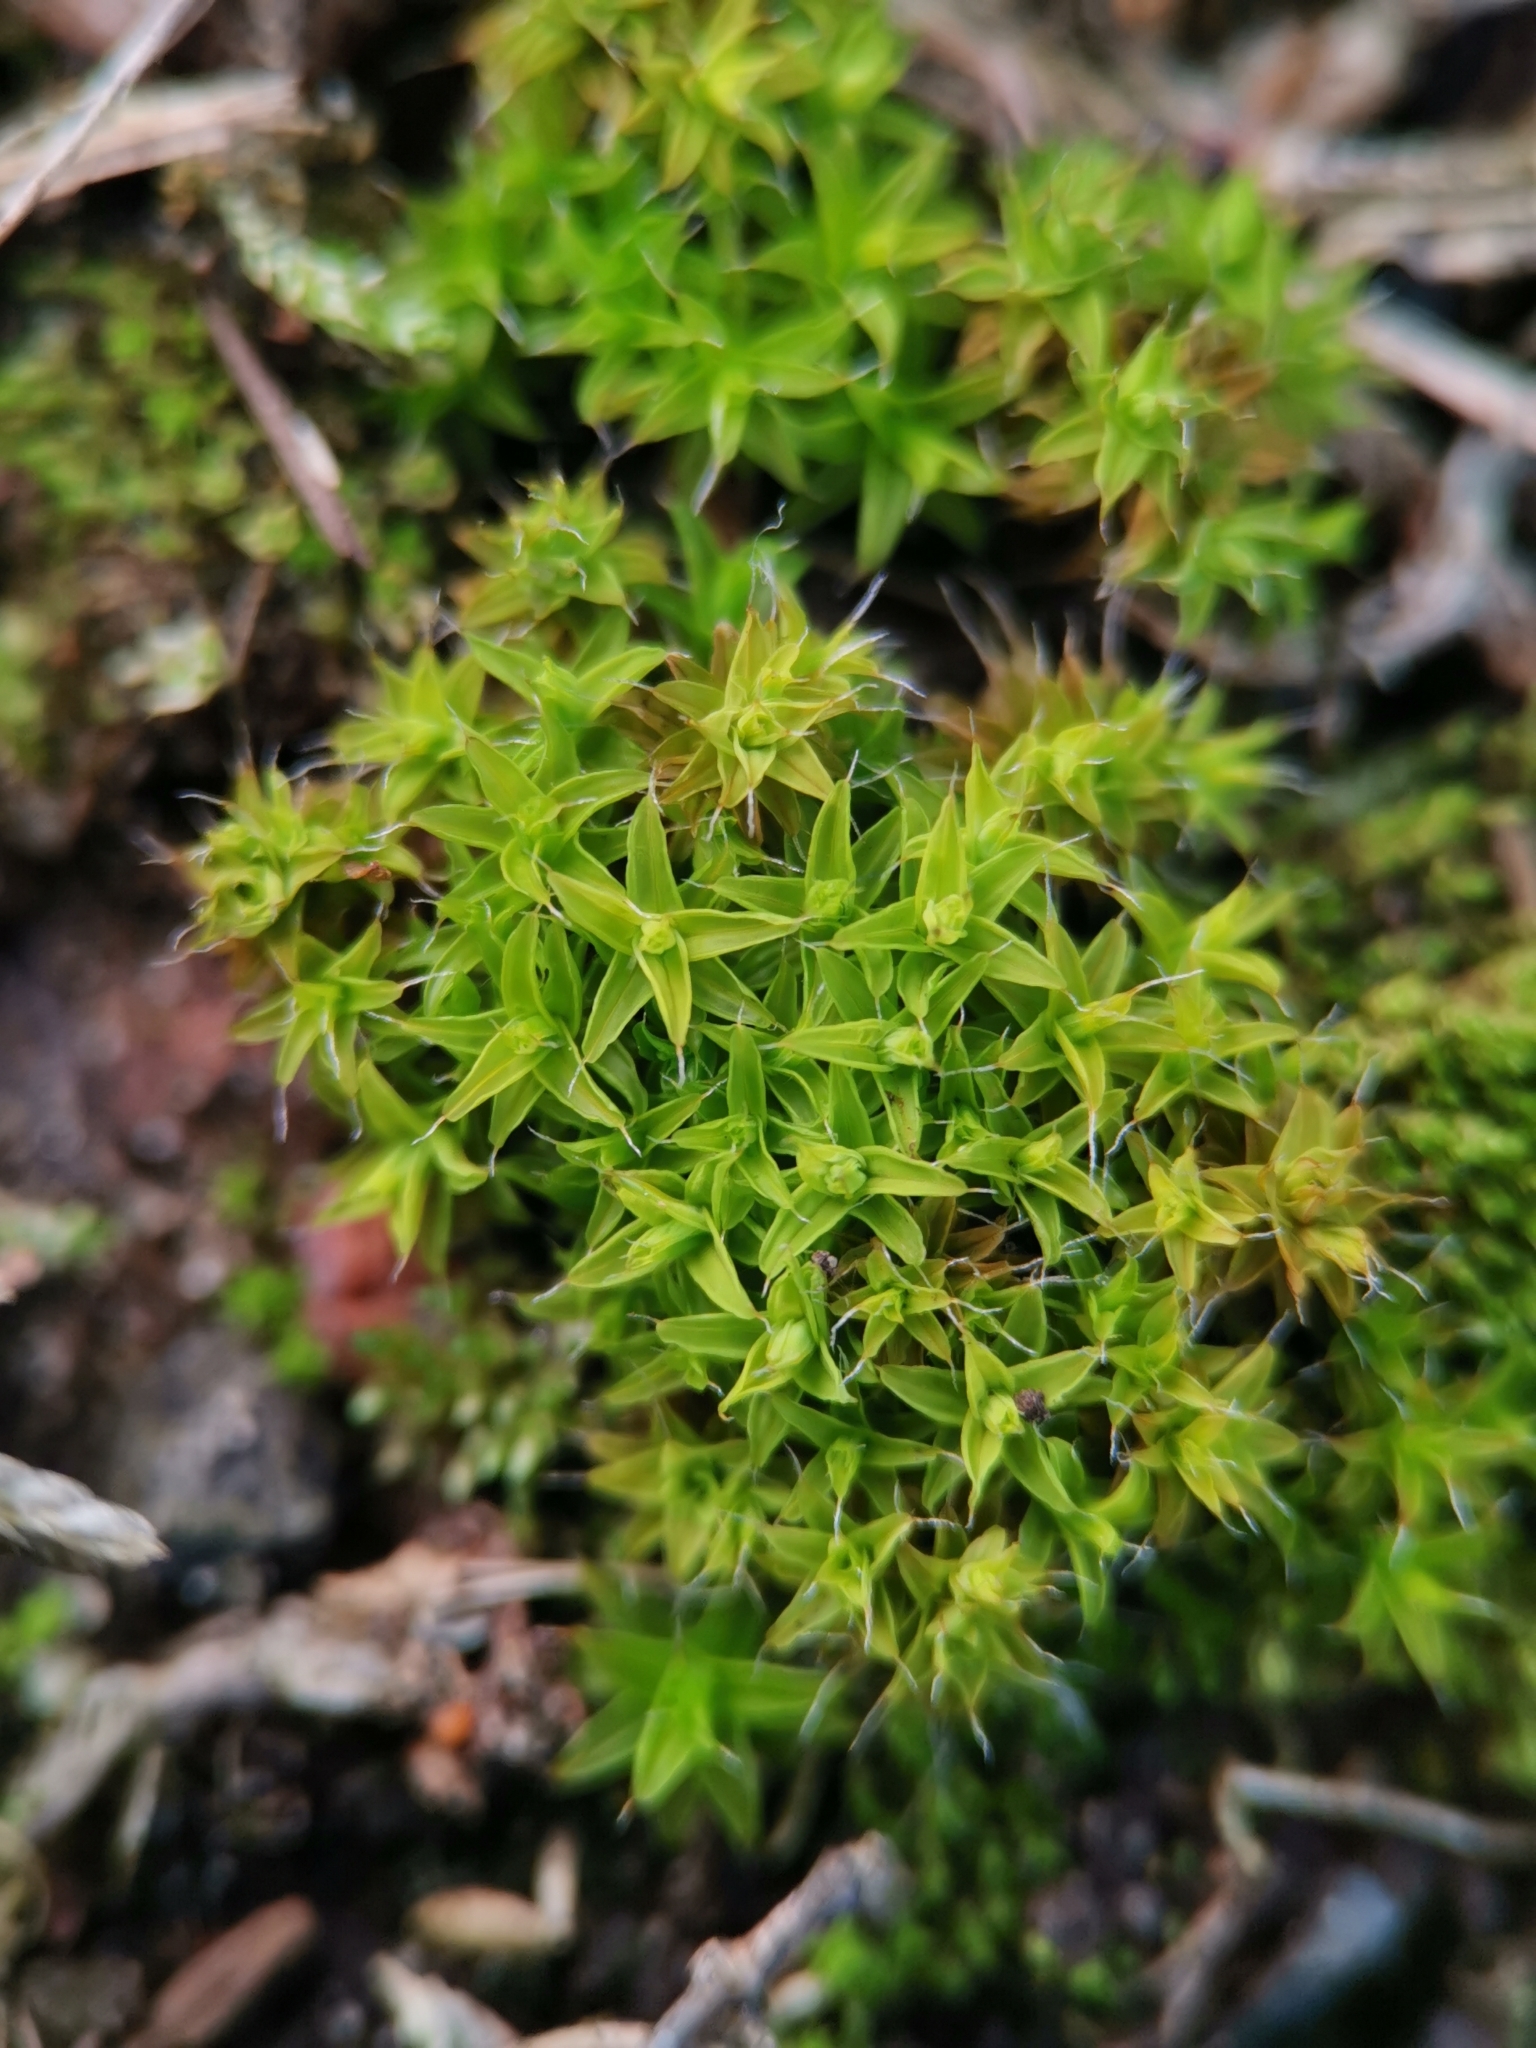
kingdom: Plantae
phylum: Bryophyta
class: Bryopsida
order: Pottiales
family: Pottiaceae
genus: Syntrichia
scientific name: Syntrichia ruralis
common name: Sidewalk screw moss
